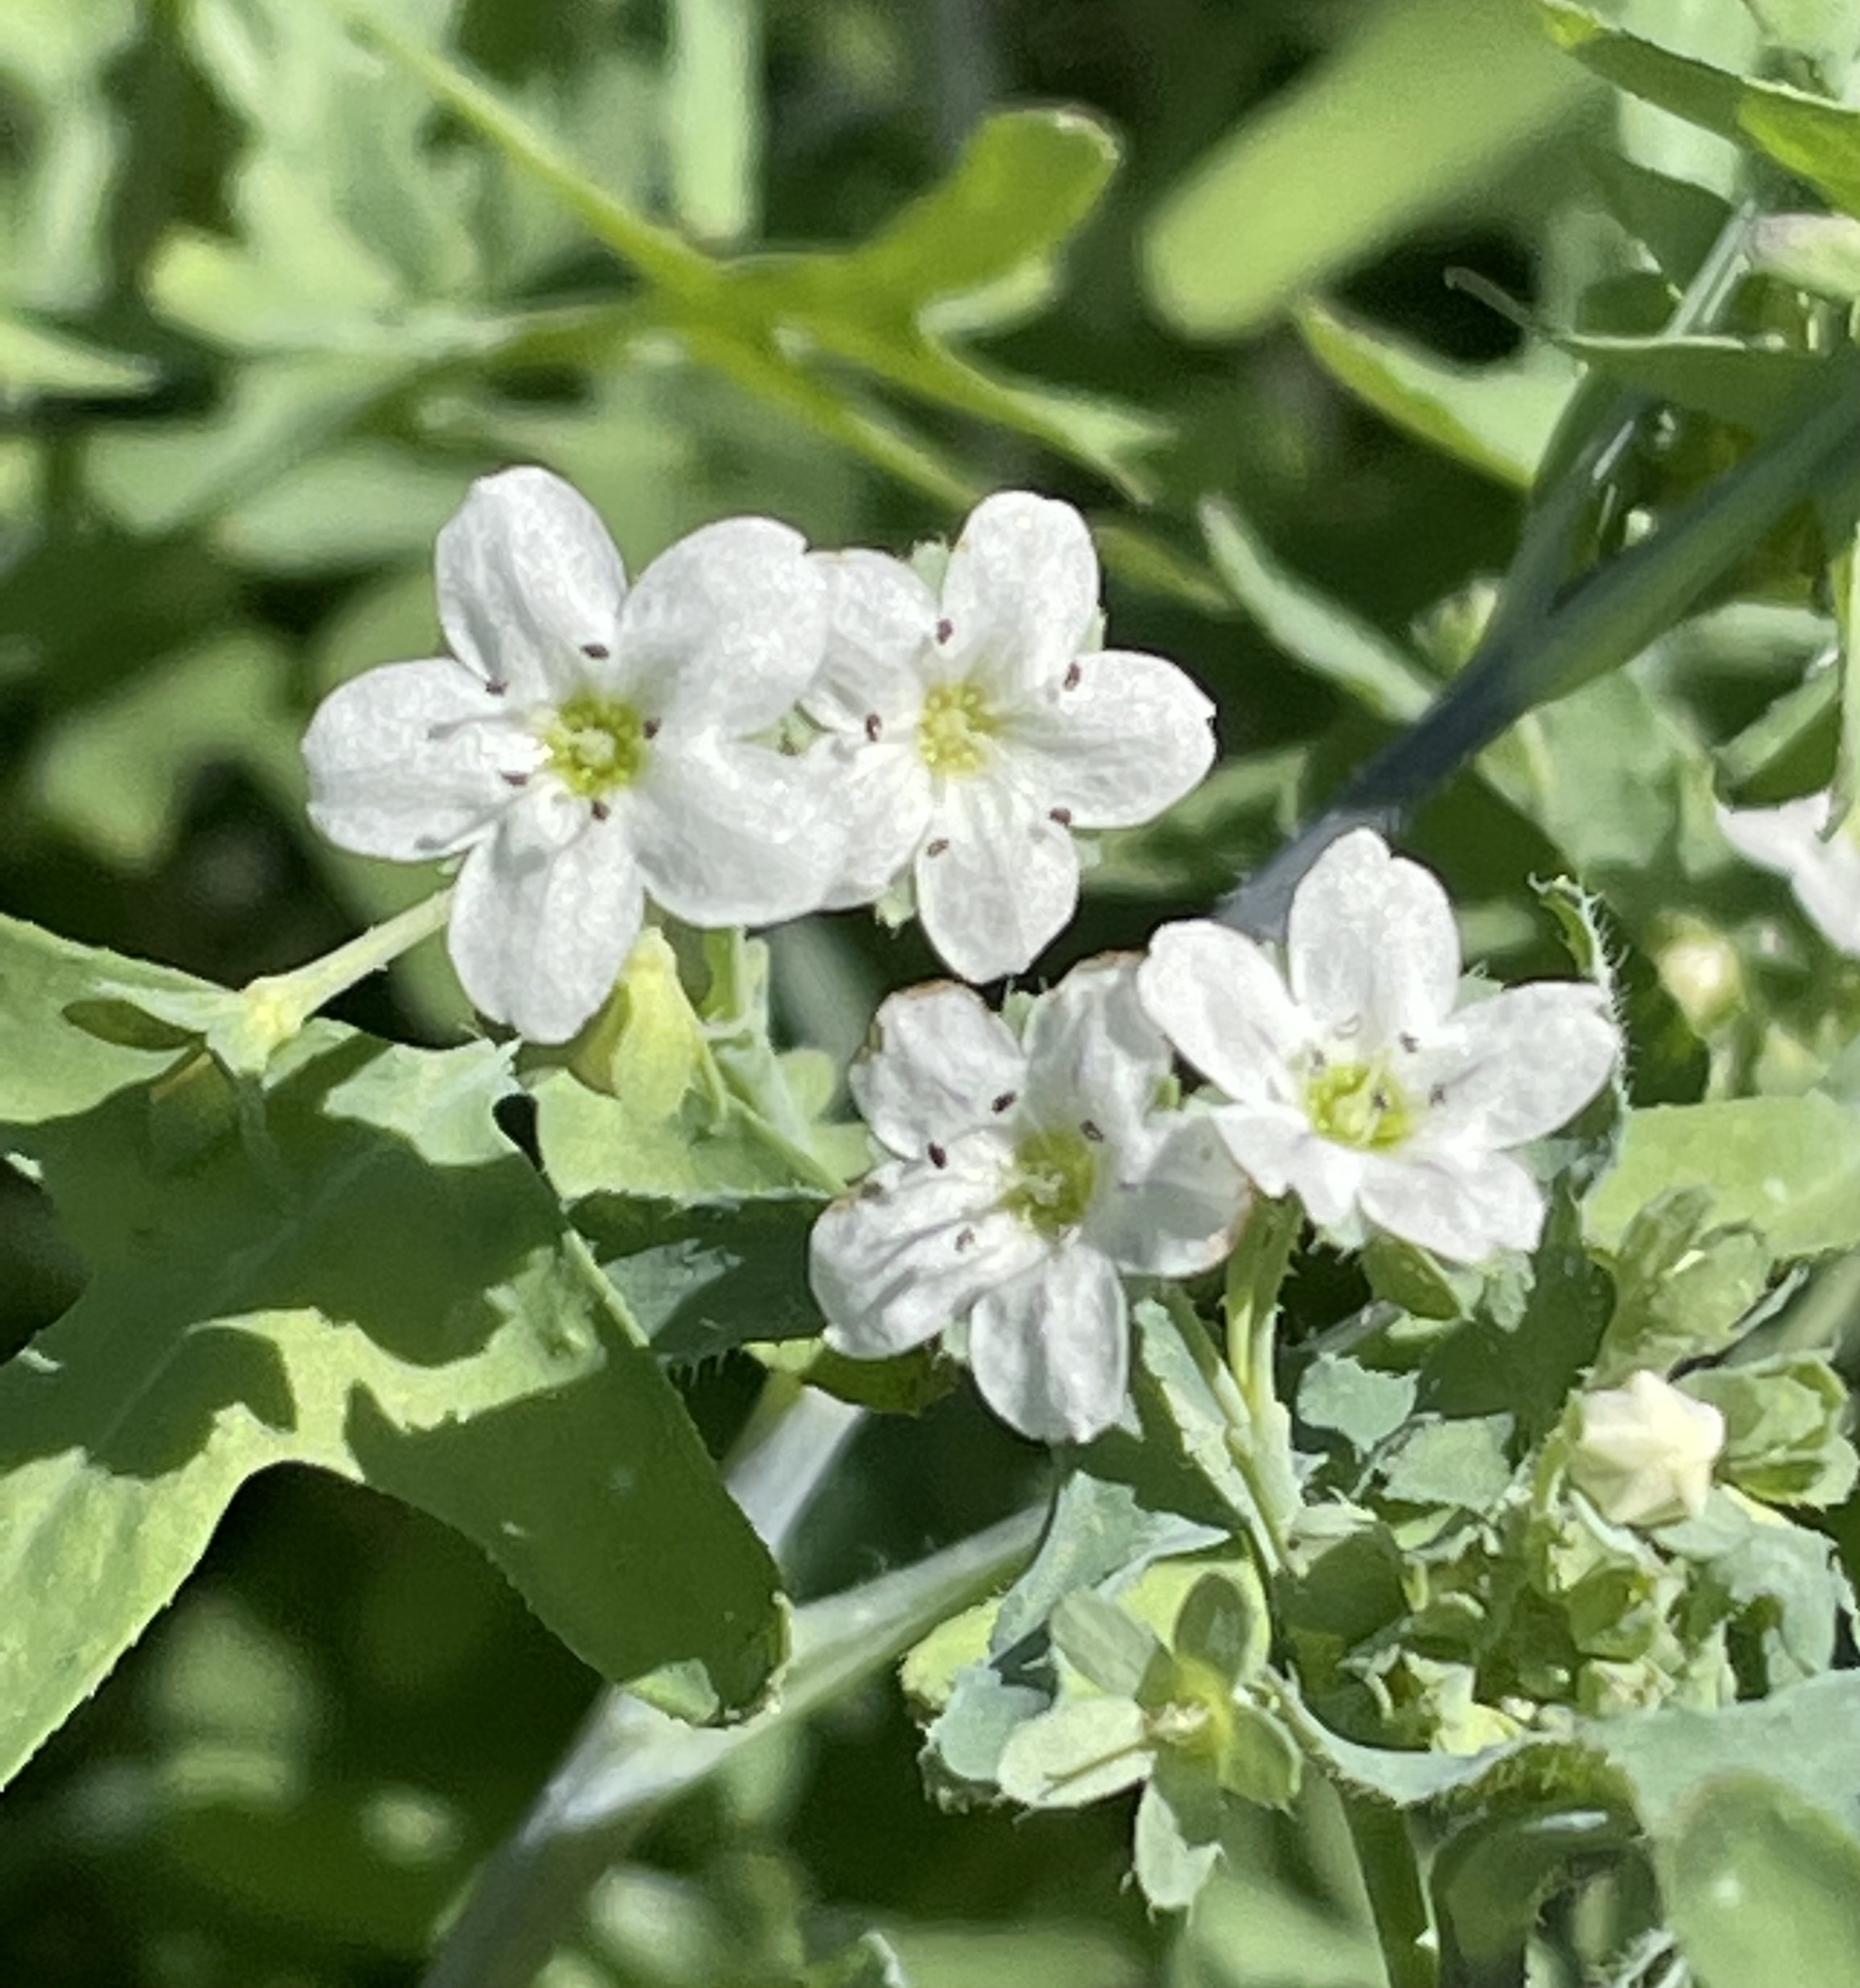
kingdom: Plantae
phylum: Tracheophyta
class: Magnoliopsida
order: Boraginales
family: Hydrophyllaceae
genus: Pholistoma
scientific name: Pholistoma membranaceum
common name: White fiesta-flower
